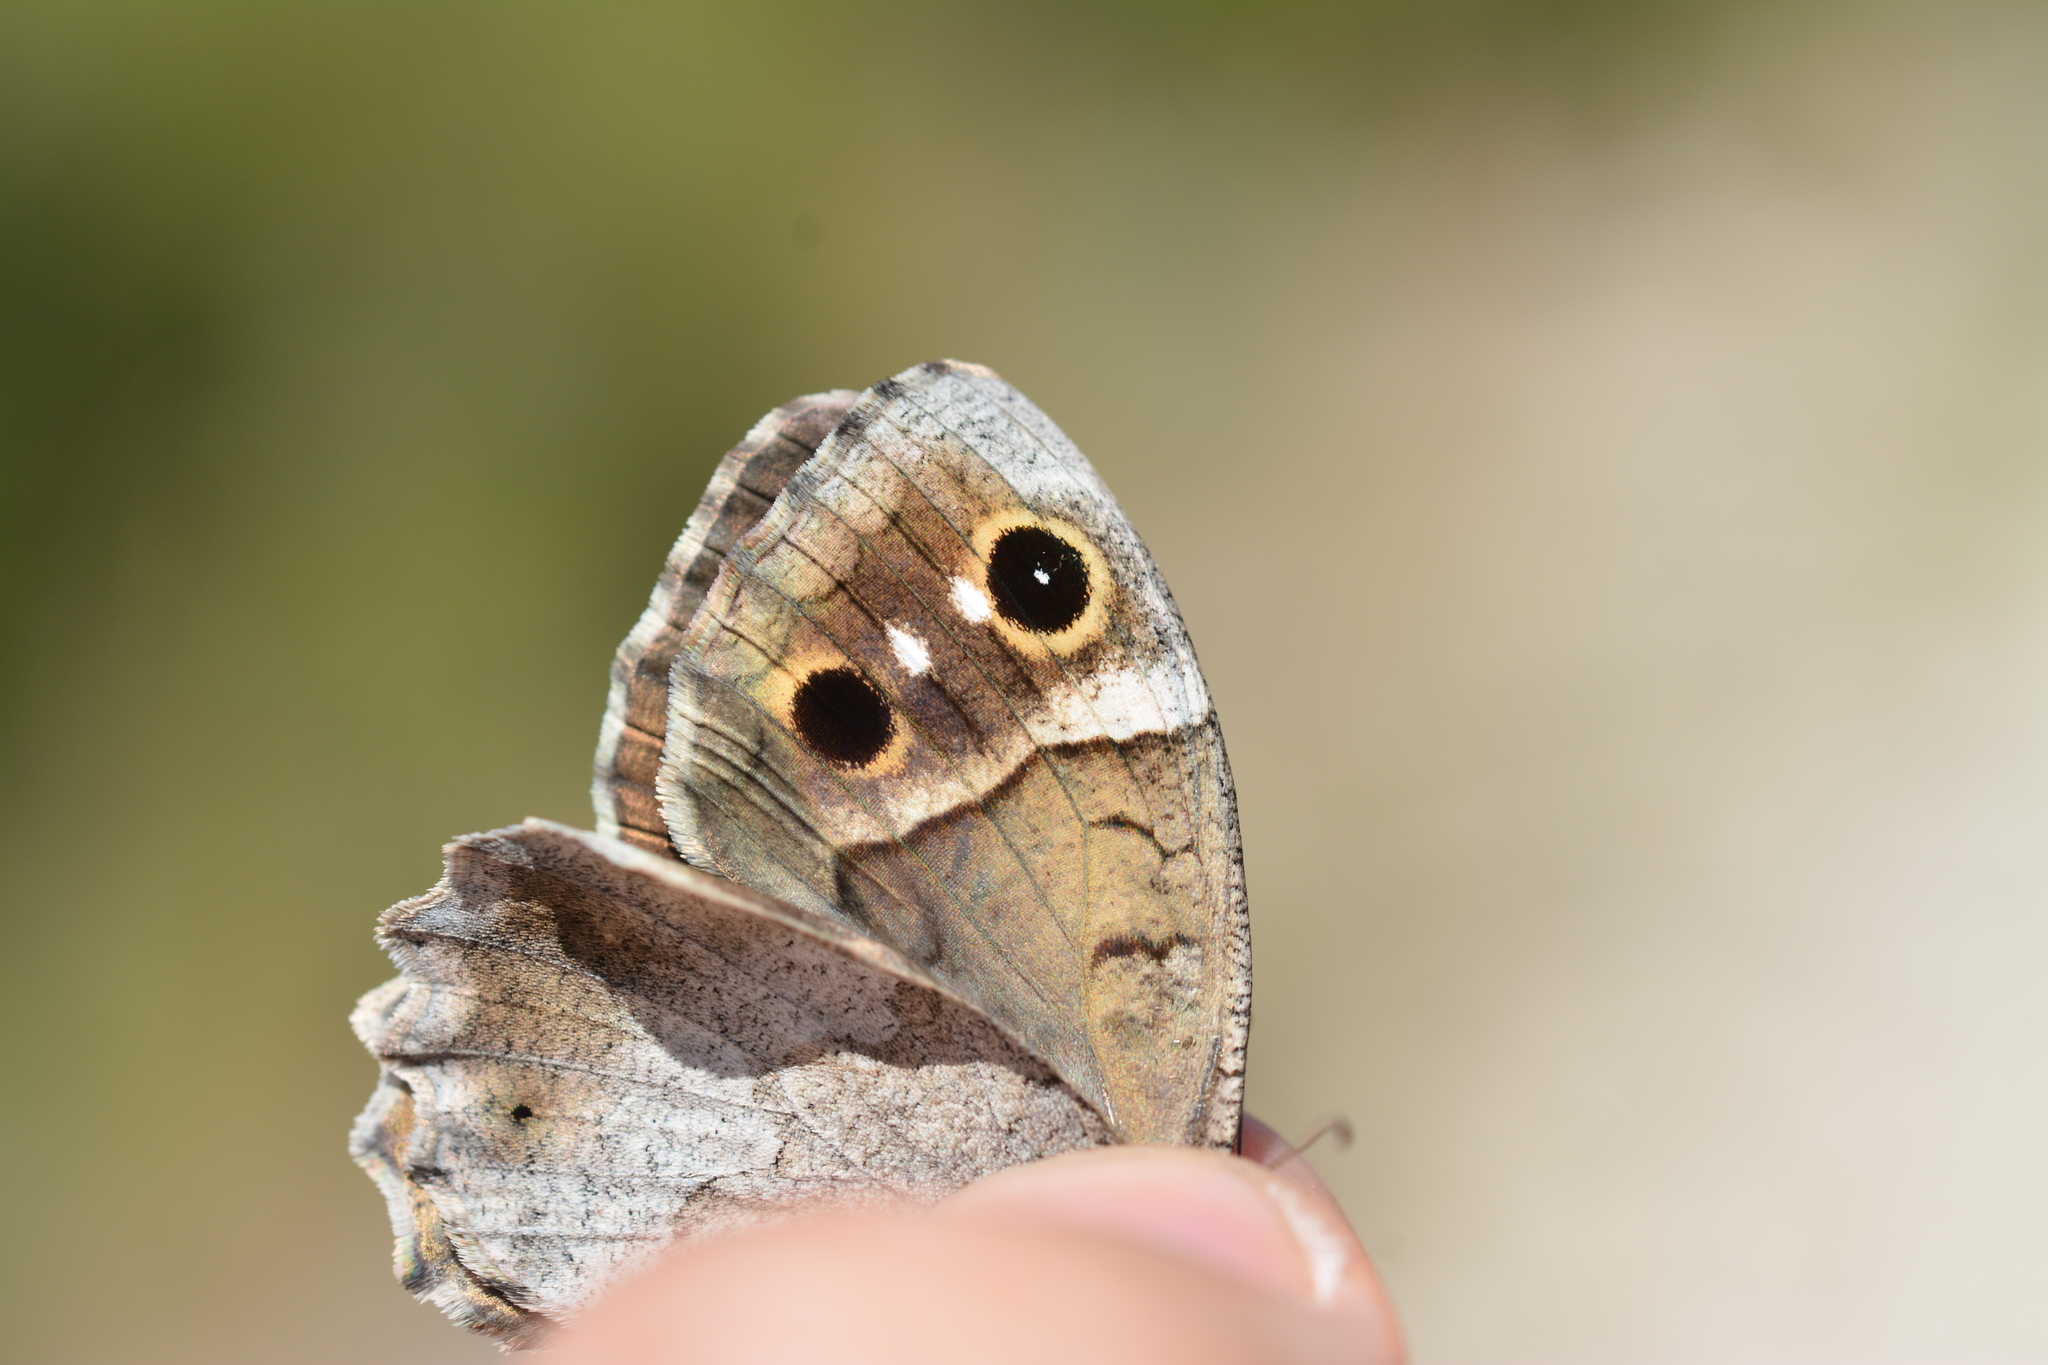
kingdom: Animalia
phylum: Arthropoda
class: Insecta
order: Lepidoptera
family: Nymphalidae
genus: Hipparchia
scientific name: Hipparchia statilinus
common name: Tree grayling
